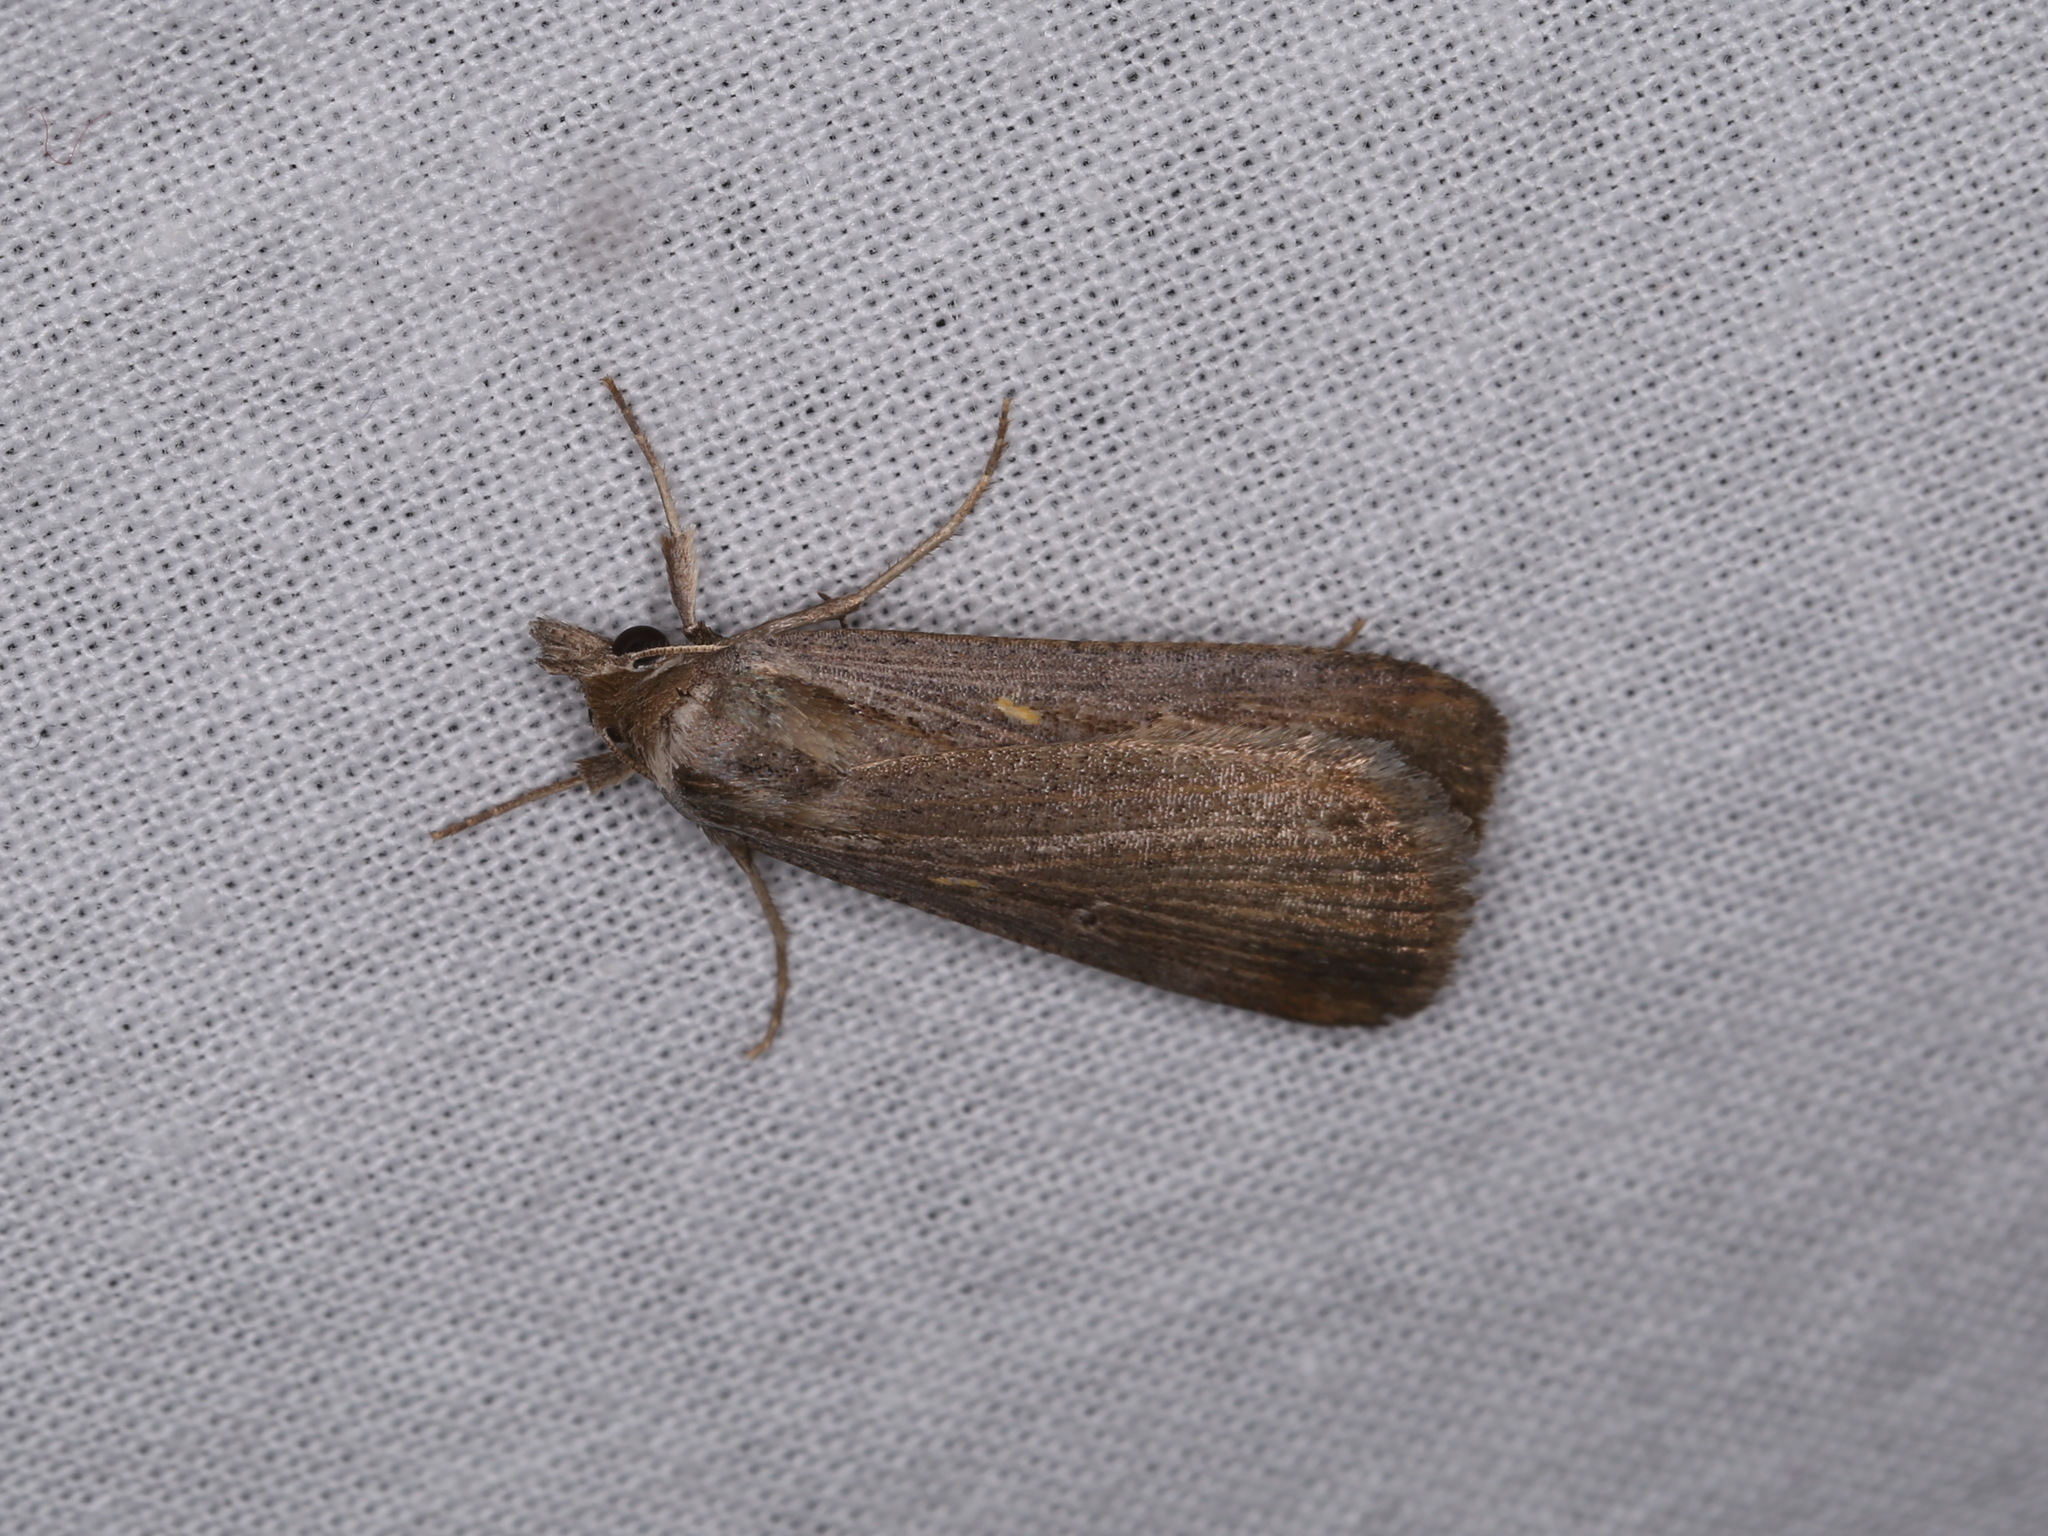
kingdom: Animalia
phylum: Arthropoda
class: Insecta
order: Lepidoptera
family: Noctuidae
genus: Tathorhynchus
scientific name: Tathorhynchus fallax
